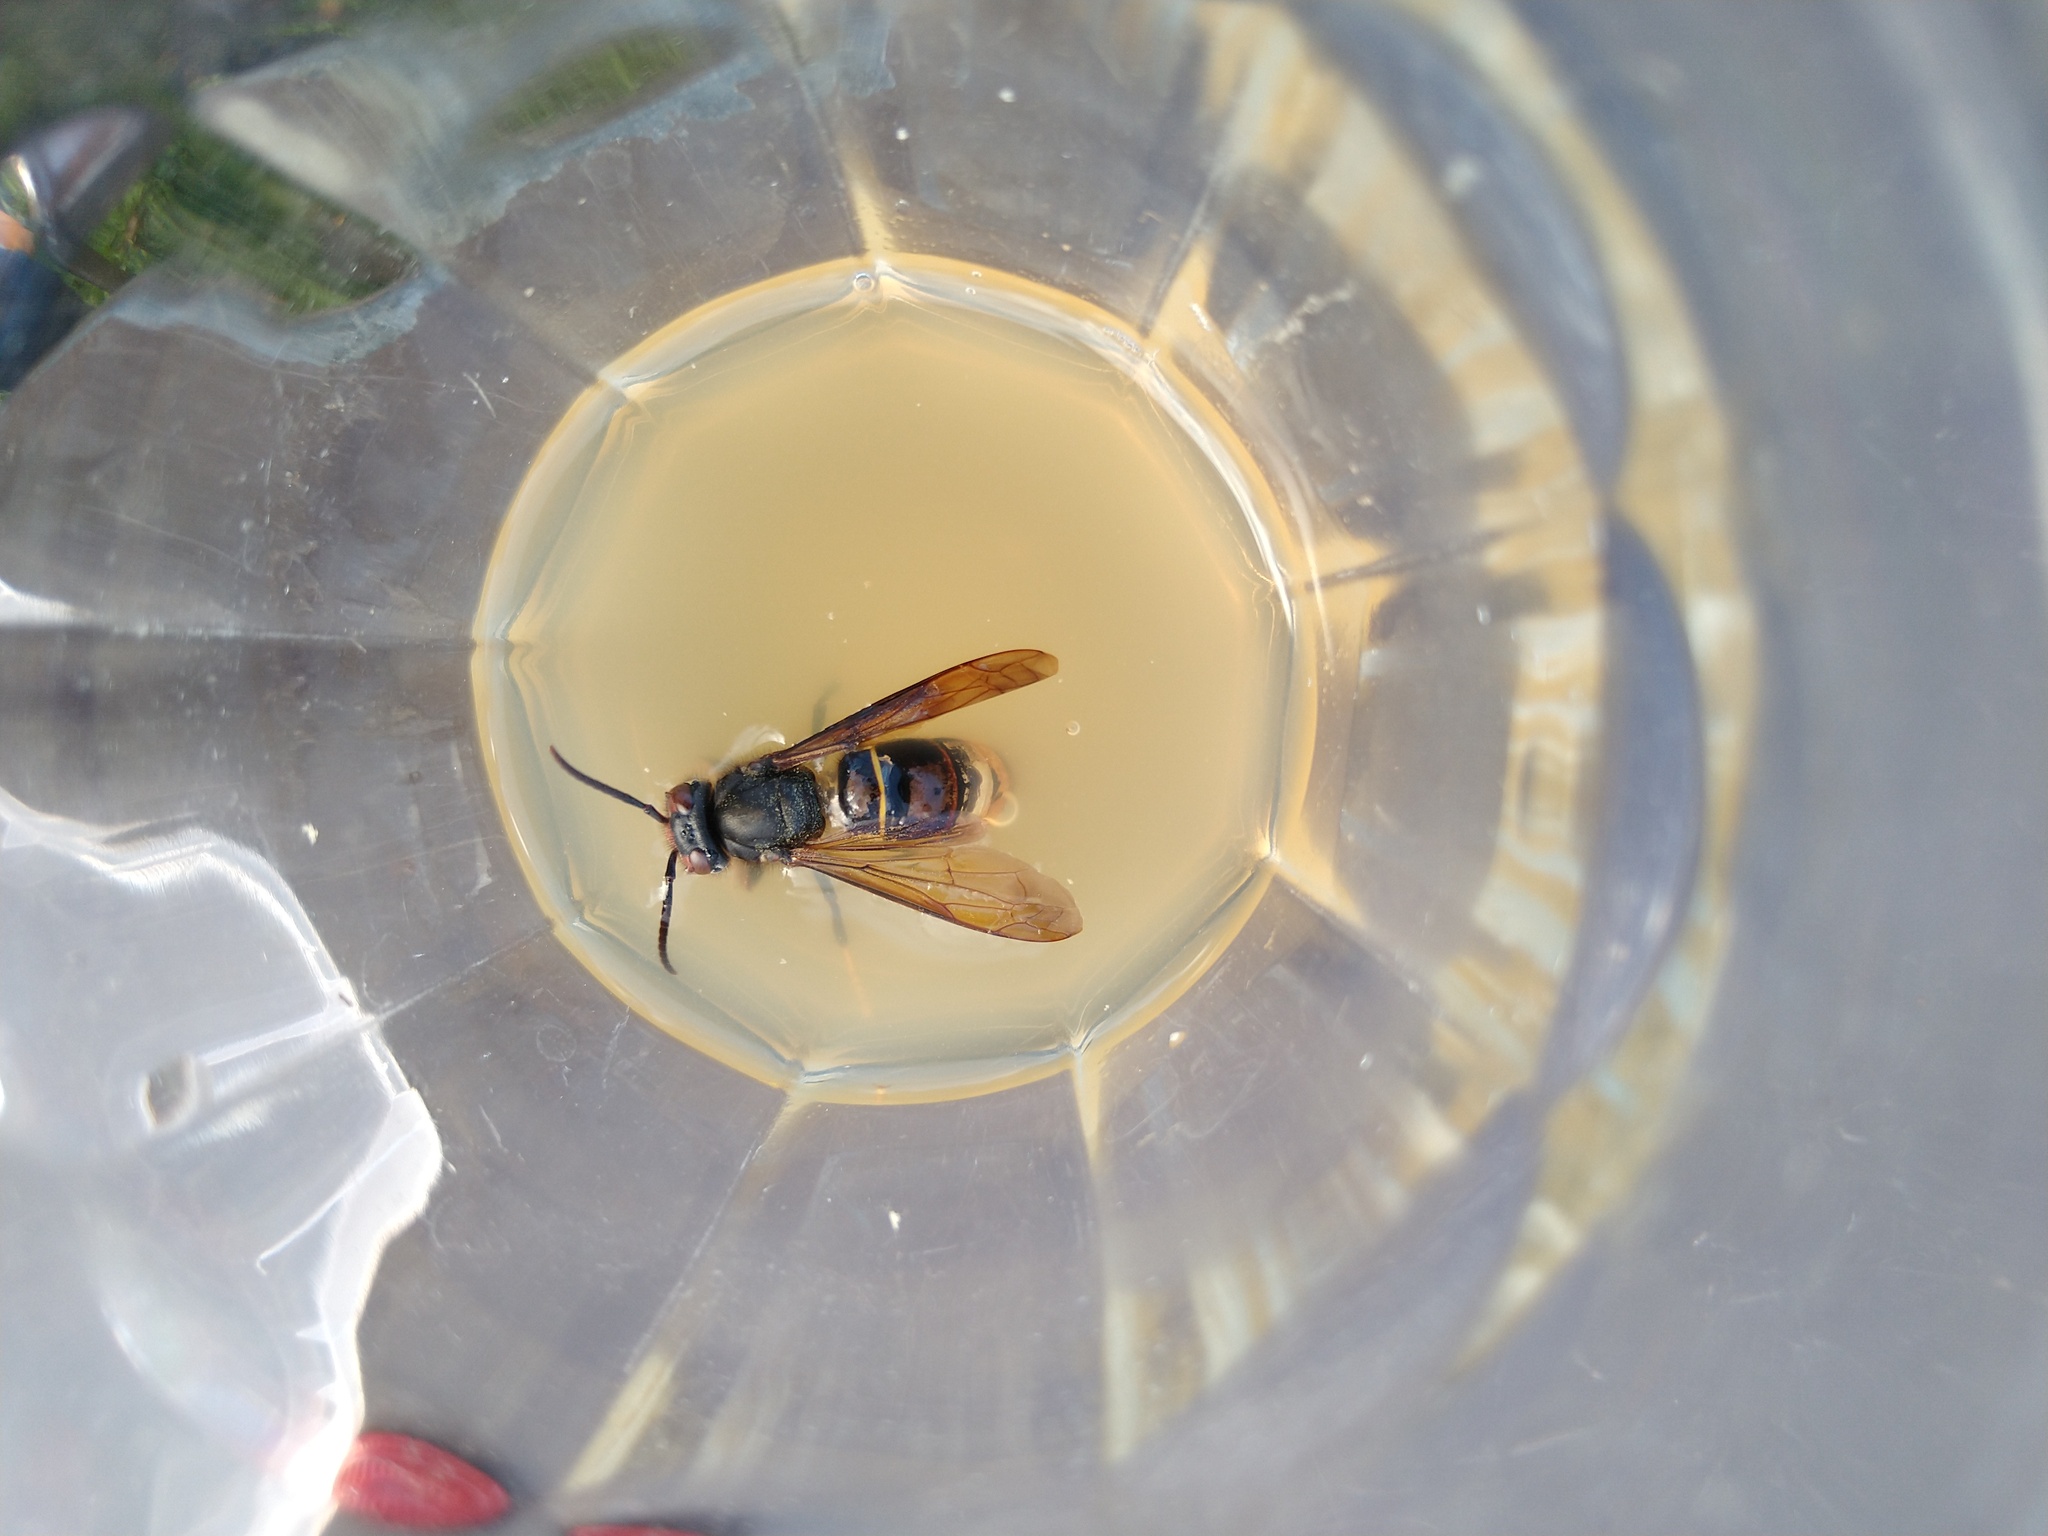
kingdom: Animalia
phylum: Arthropoda
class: Insecta
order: Hymenoptera
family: Vespidae
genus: Vespa
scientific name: Vespa velutina
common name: Asian hornet
